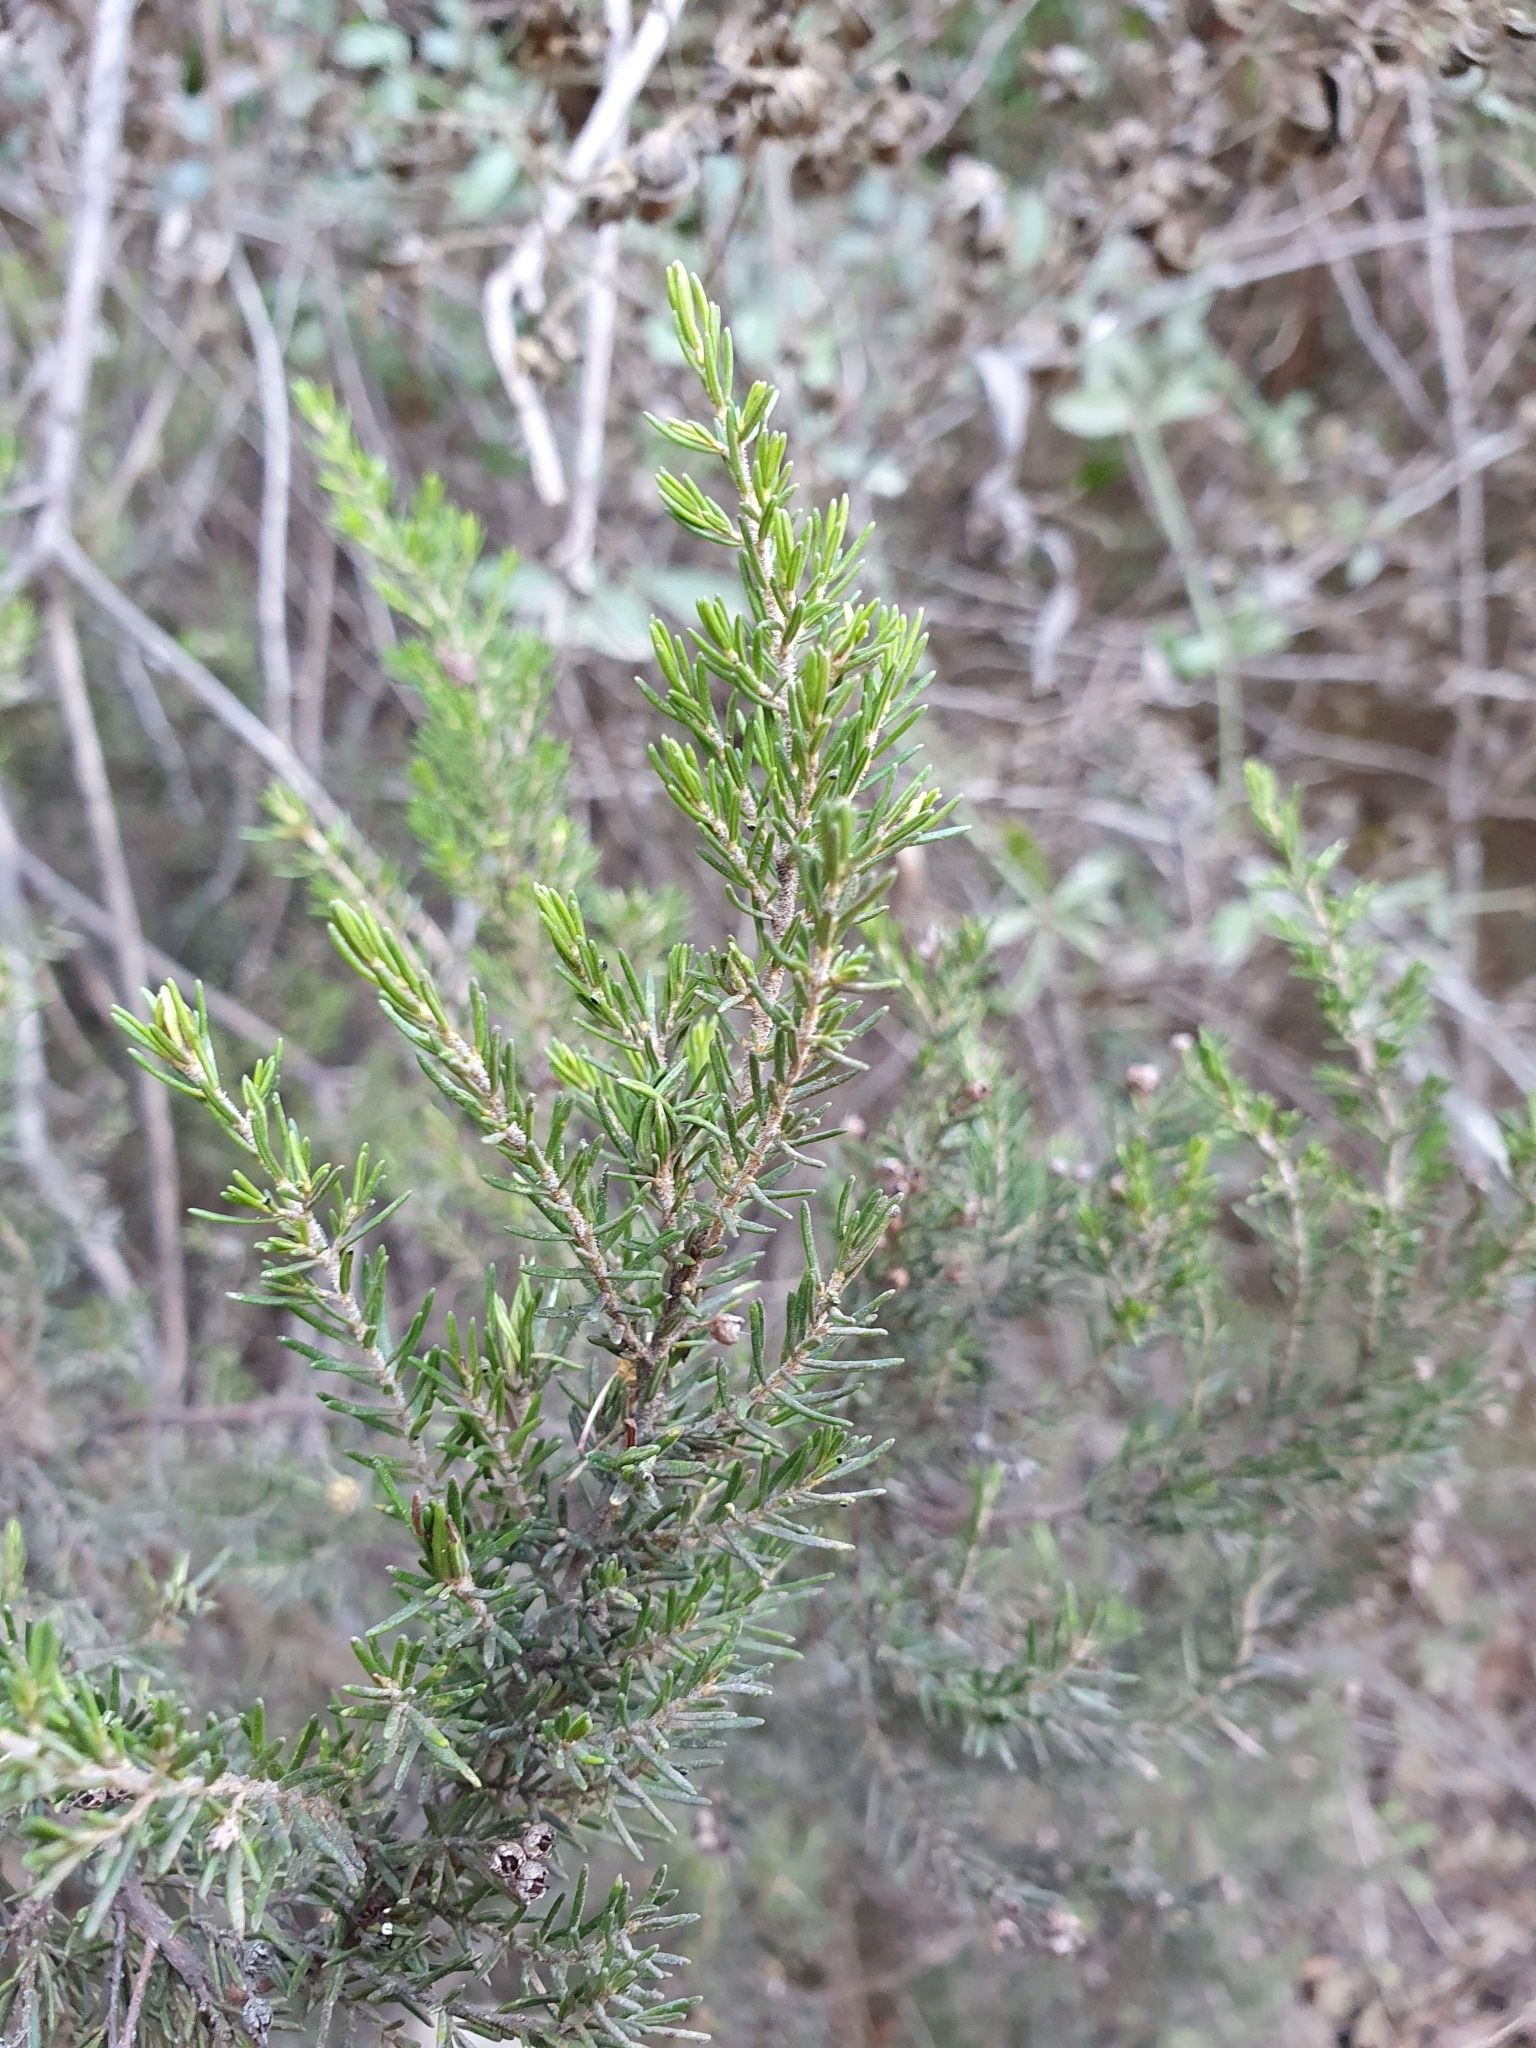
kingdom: Plantae
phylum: Tracheophyta
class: Magnoliopsida
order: Ericales
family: Ericaceae
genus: Erica
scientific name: Erica arborea
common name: Tree heath
